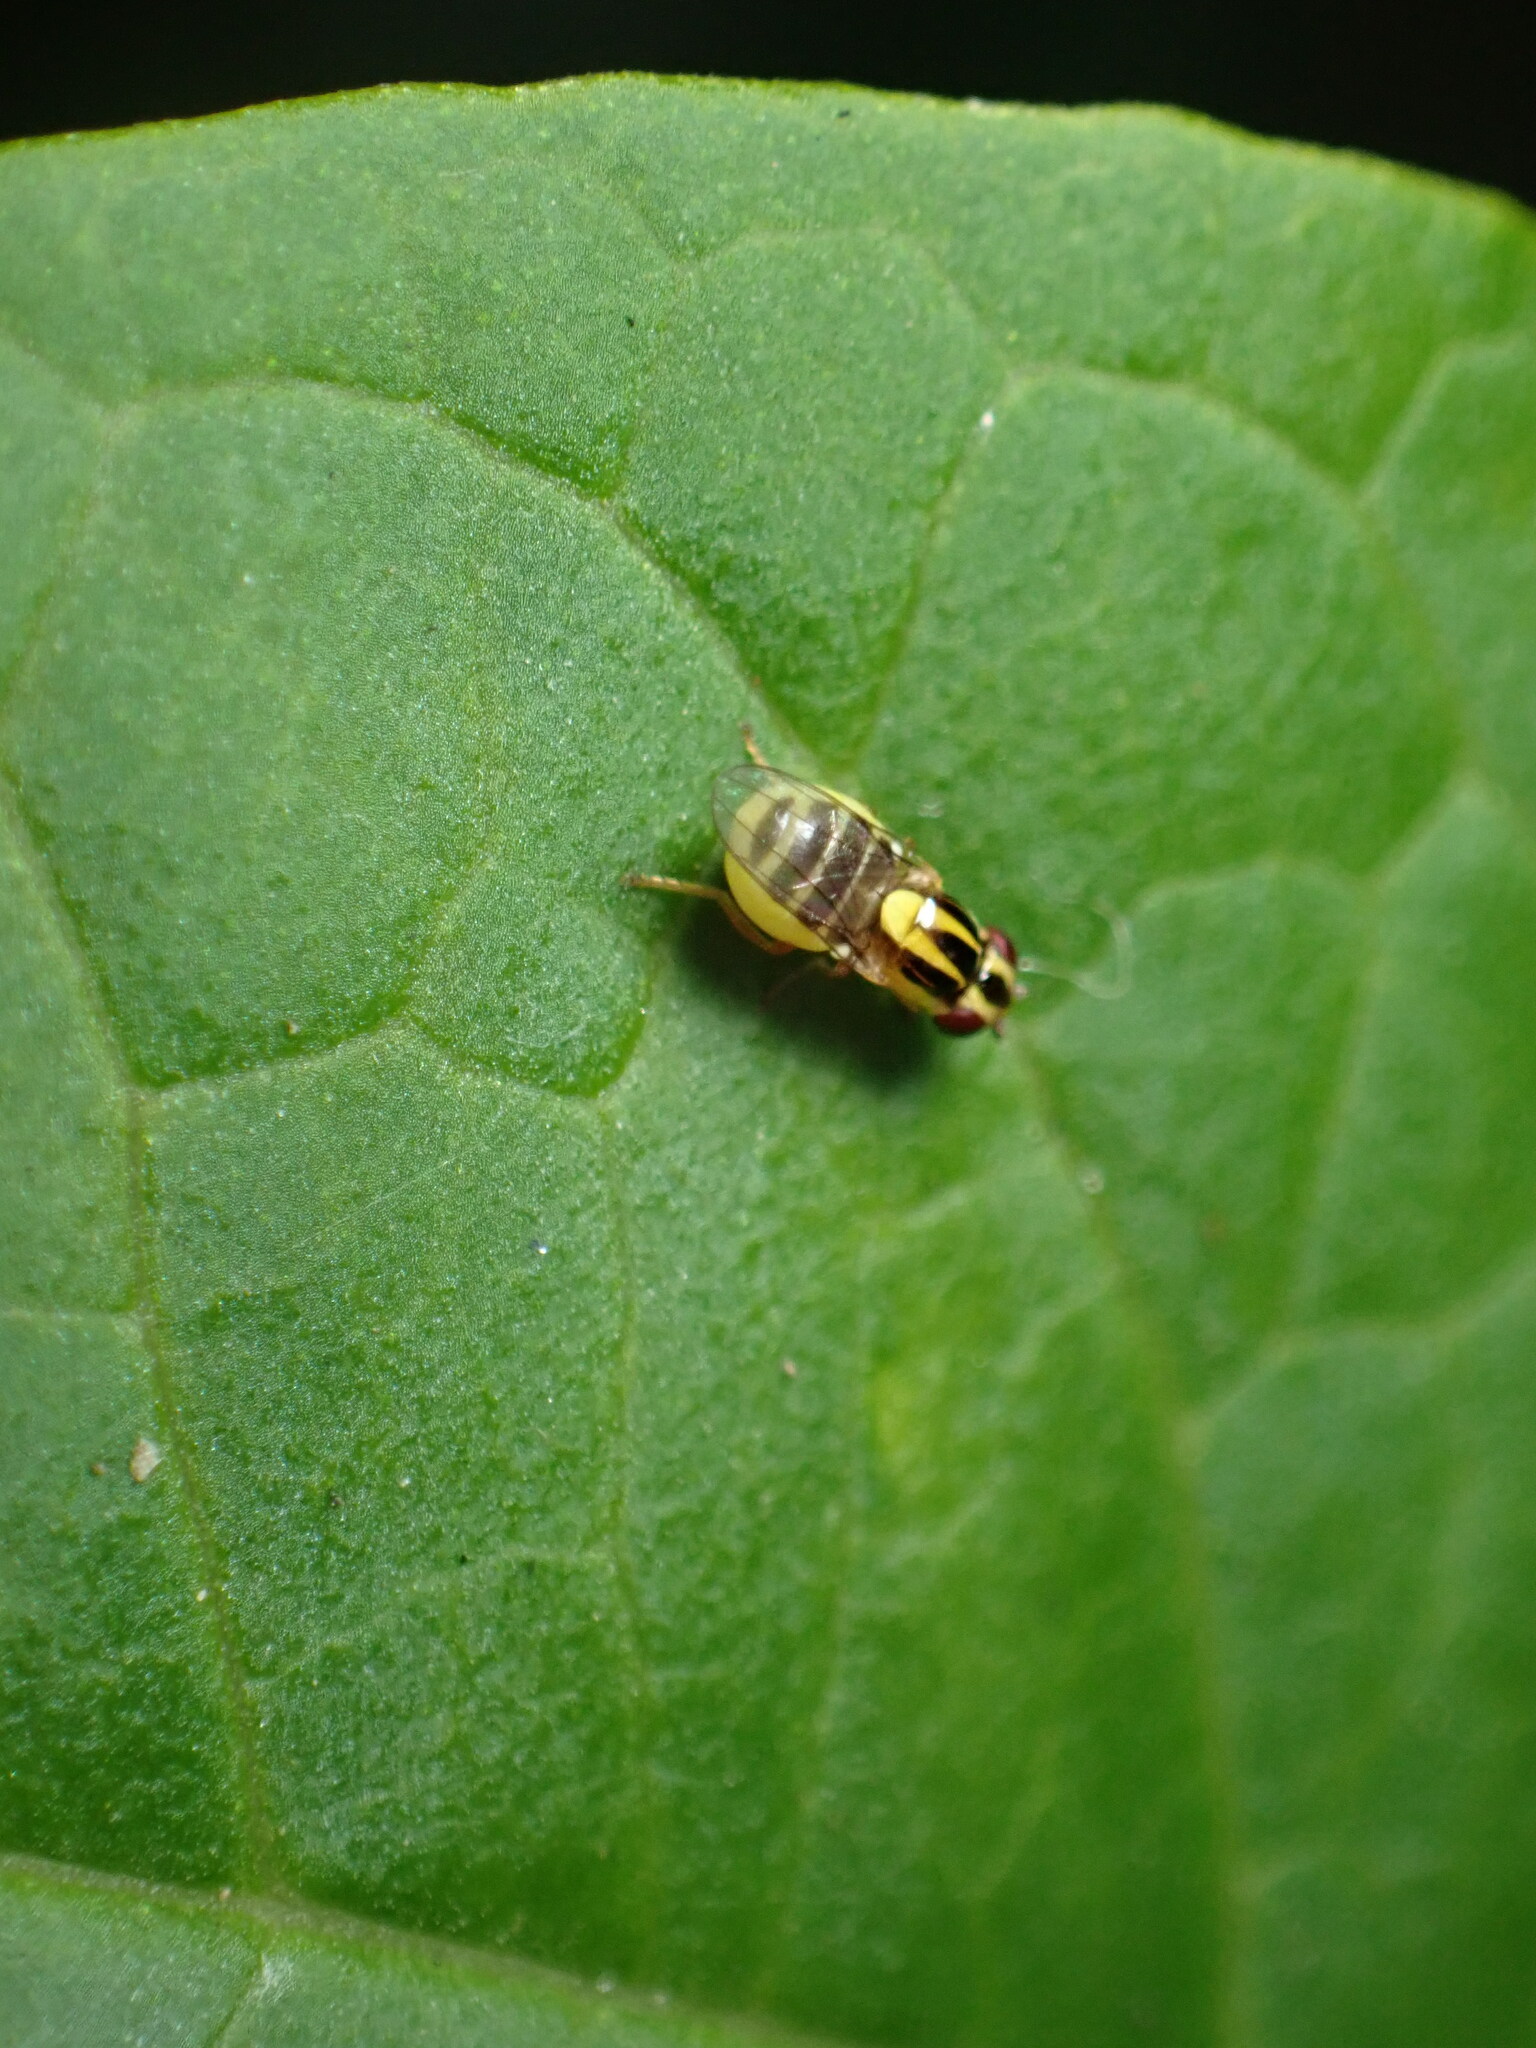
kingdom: Animalia
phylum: Arthropoda
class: Insecta
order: Diptera
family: Chloropidae
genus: Thaumatomyia
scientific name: Thaumatomyia glabra
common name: Chloropid fly
